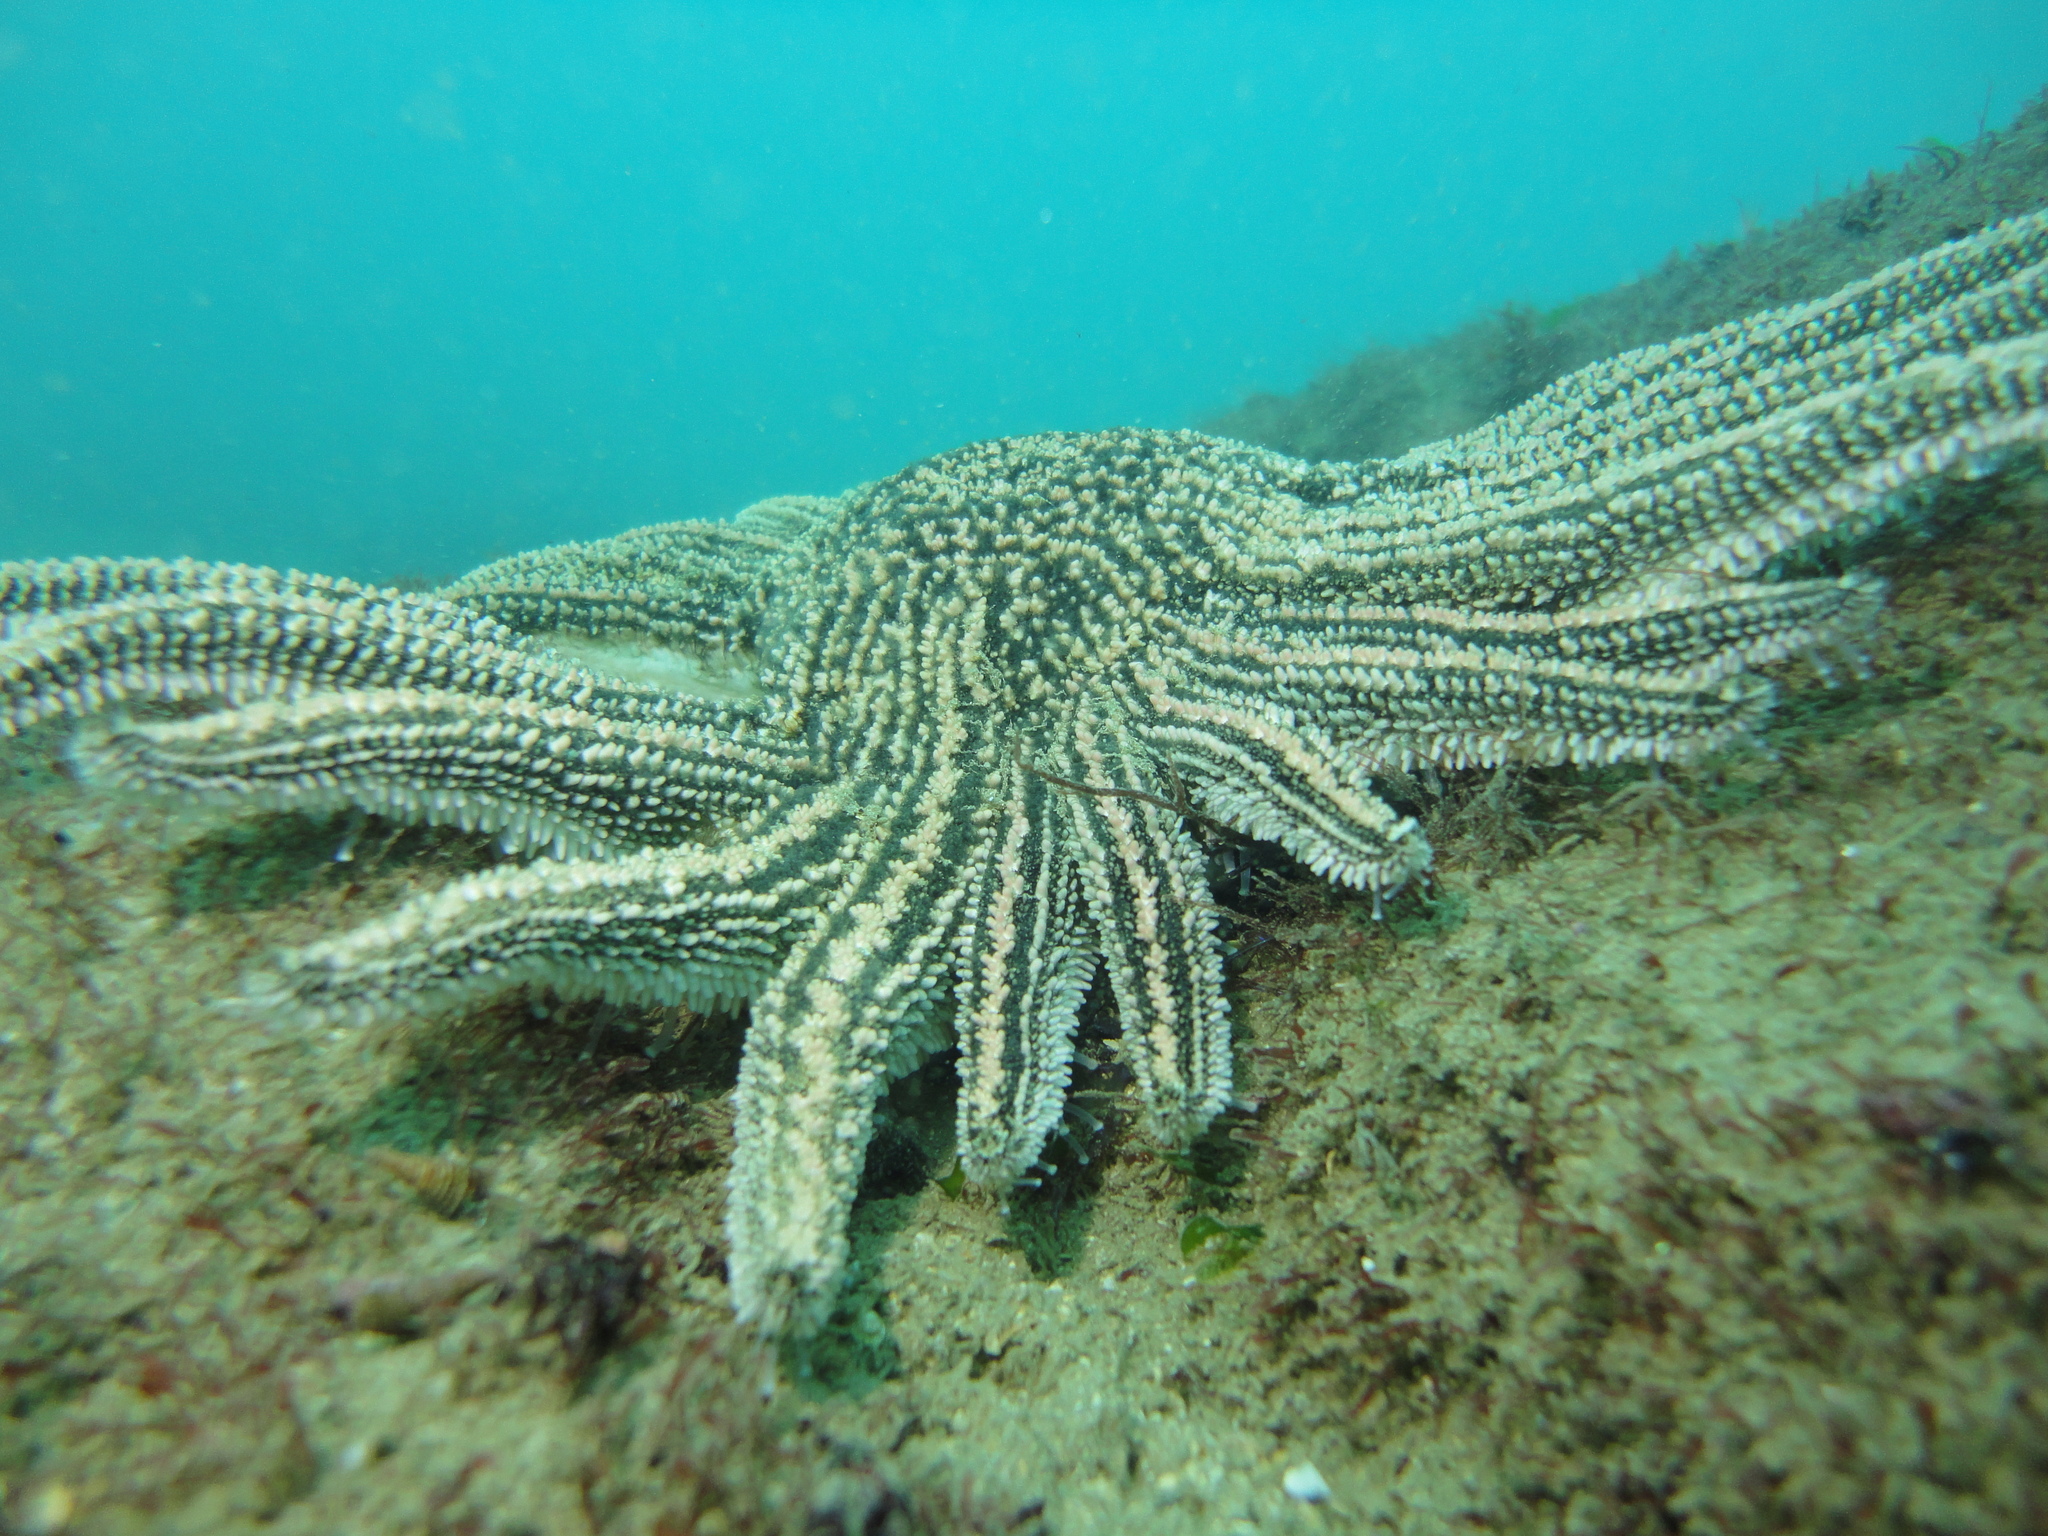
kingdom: Animalia
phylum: Echinodermata
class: Asteroidea
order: Forcipulatida
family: Heliasteridae
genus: Heliaster
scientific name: Heliaster helianthus
